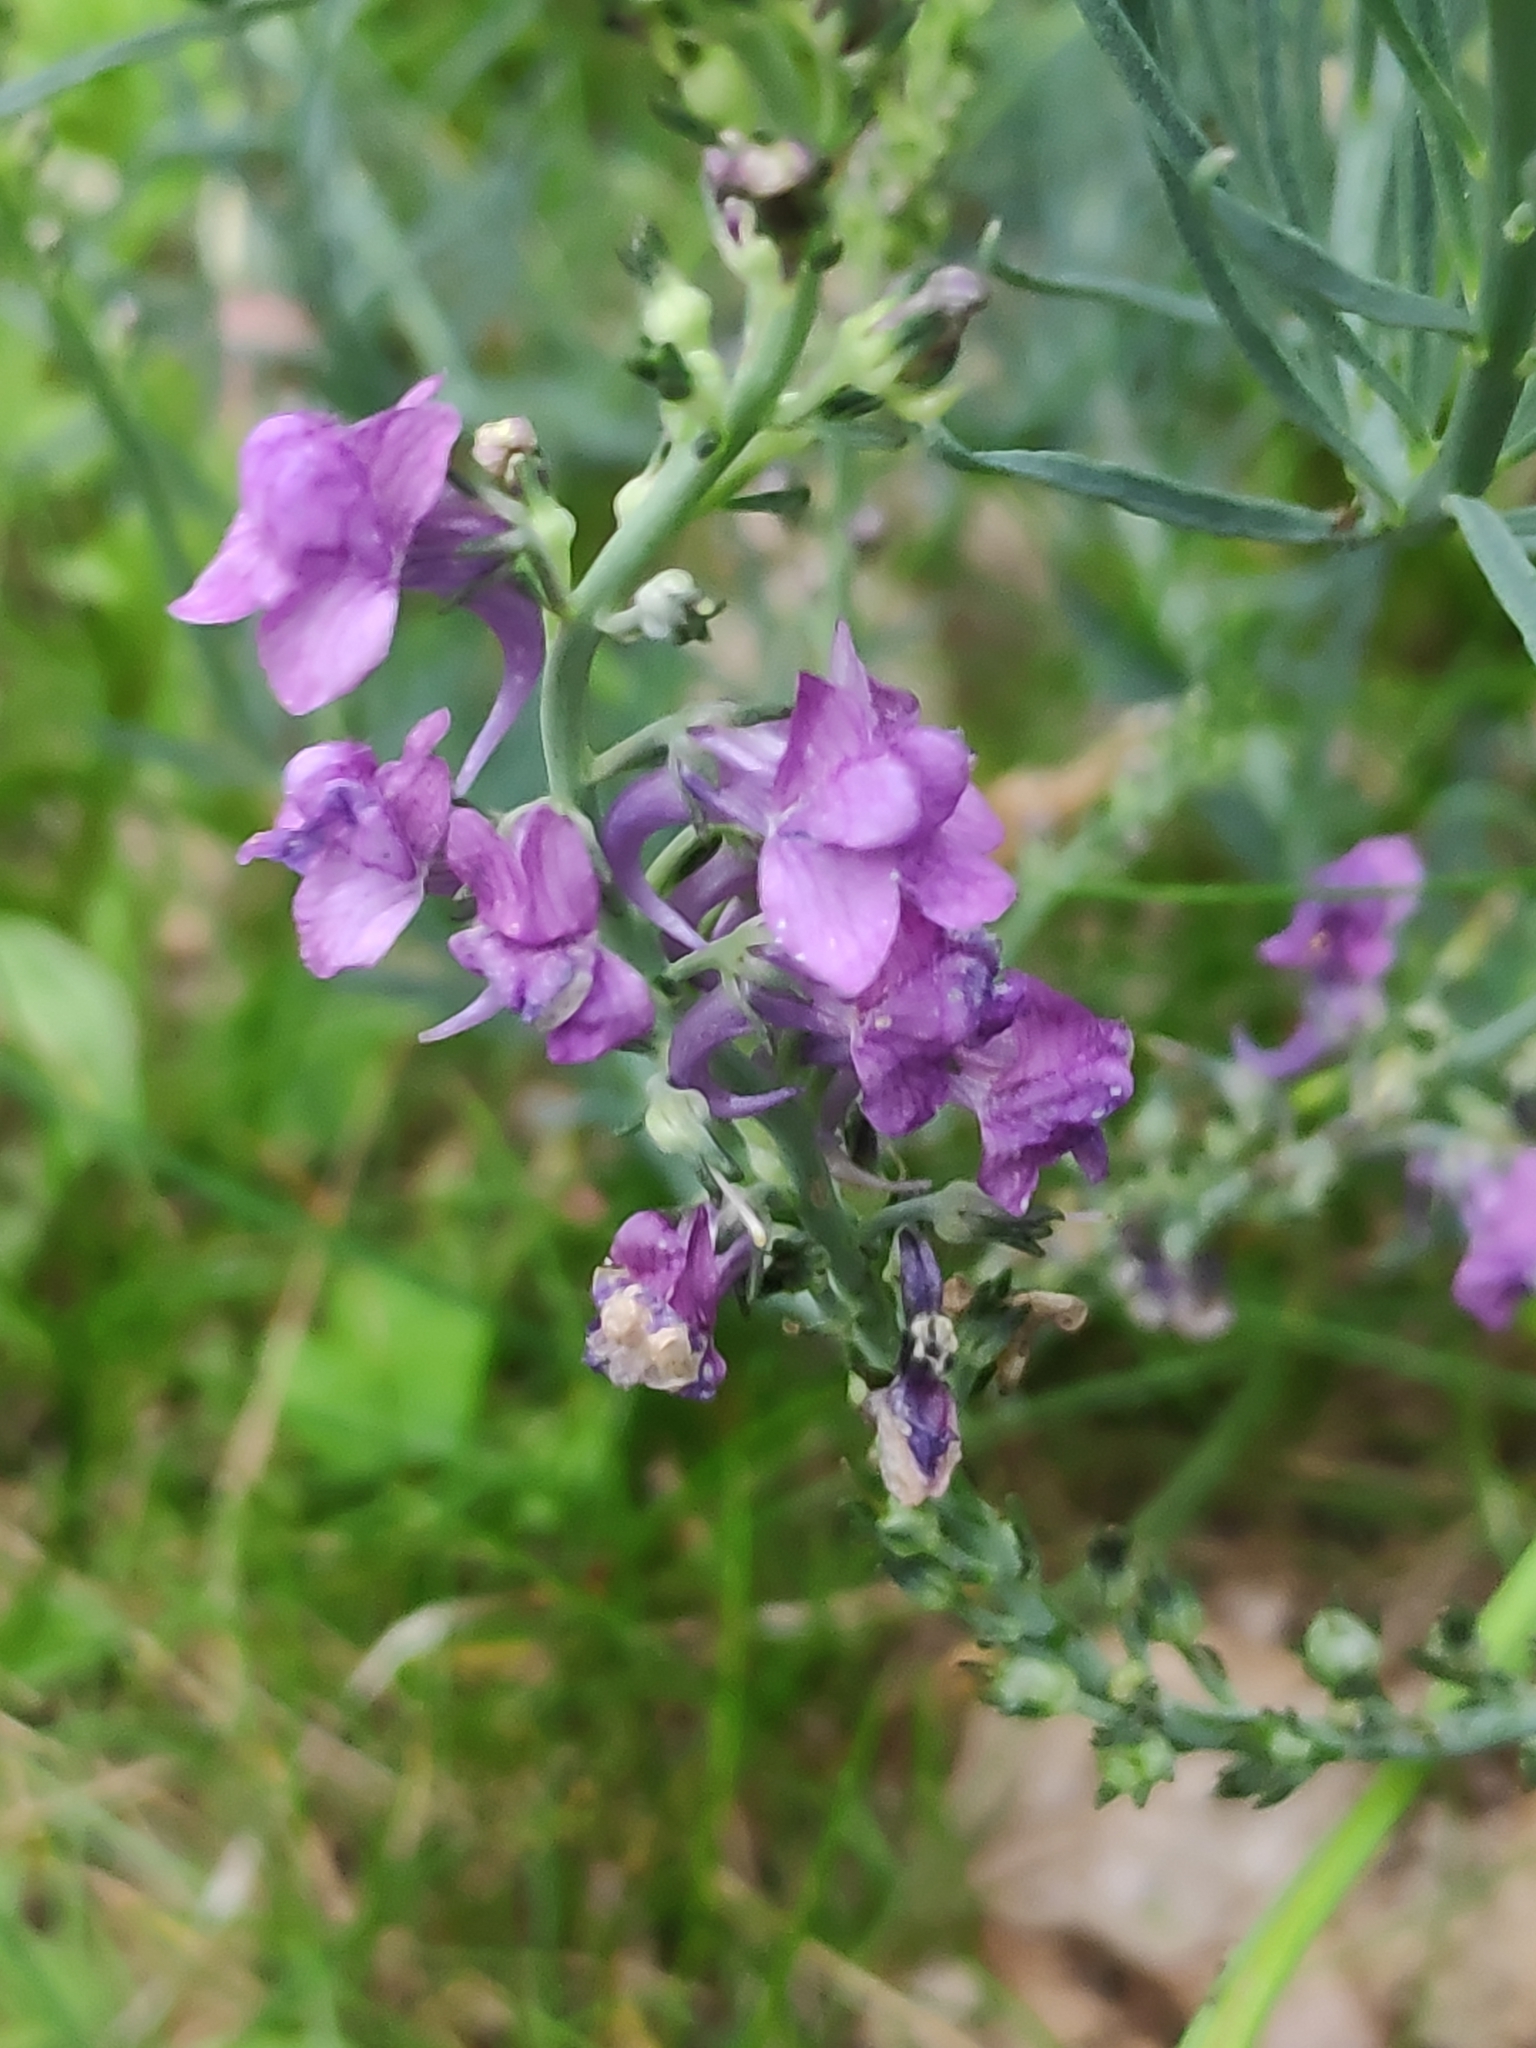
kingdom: Plantae
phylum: Tracheophyta
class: Magnoliopsida
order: Lamiales
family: Plantaginaceae
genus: Linaria
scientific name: Linaria purpurea
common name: Purple toadflax
